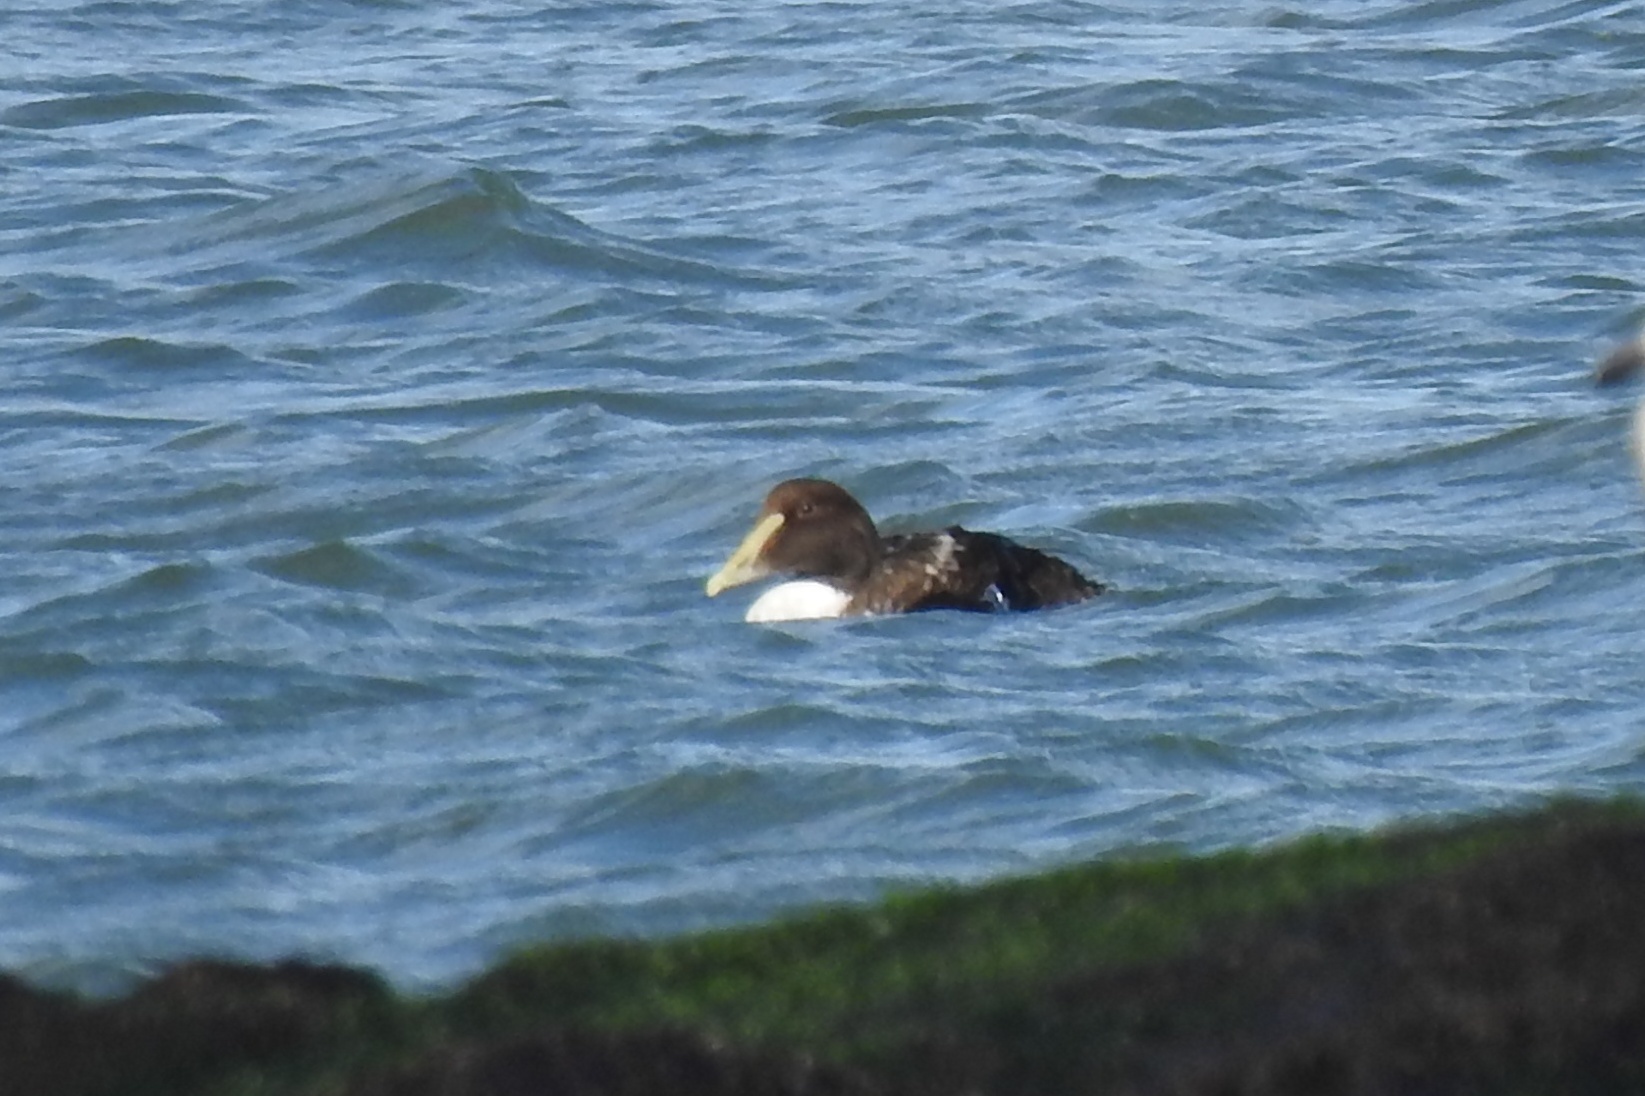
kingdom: Animalia
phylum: Chordata
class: Aves
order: Anseriformes
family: Anatidae
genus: Somateria
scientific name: Somateria mollissima
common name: Common eider
